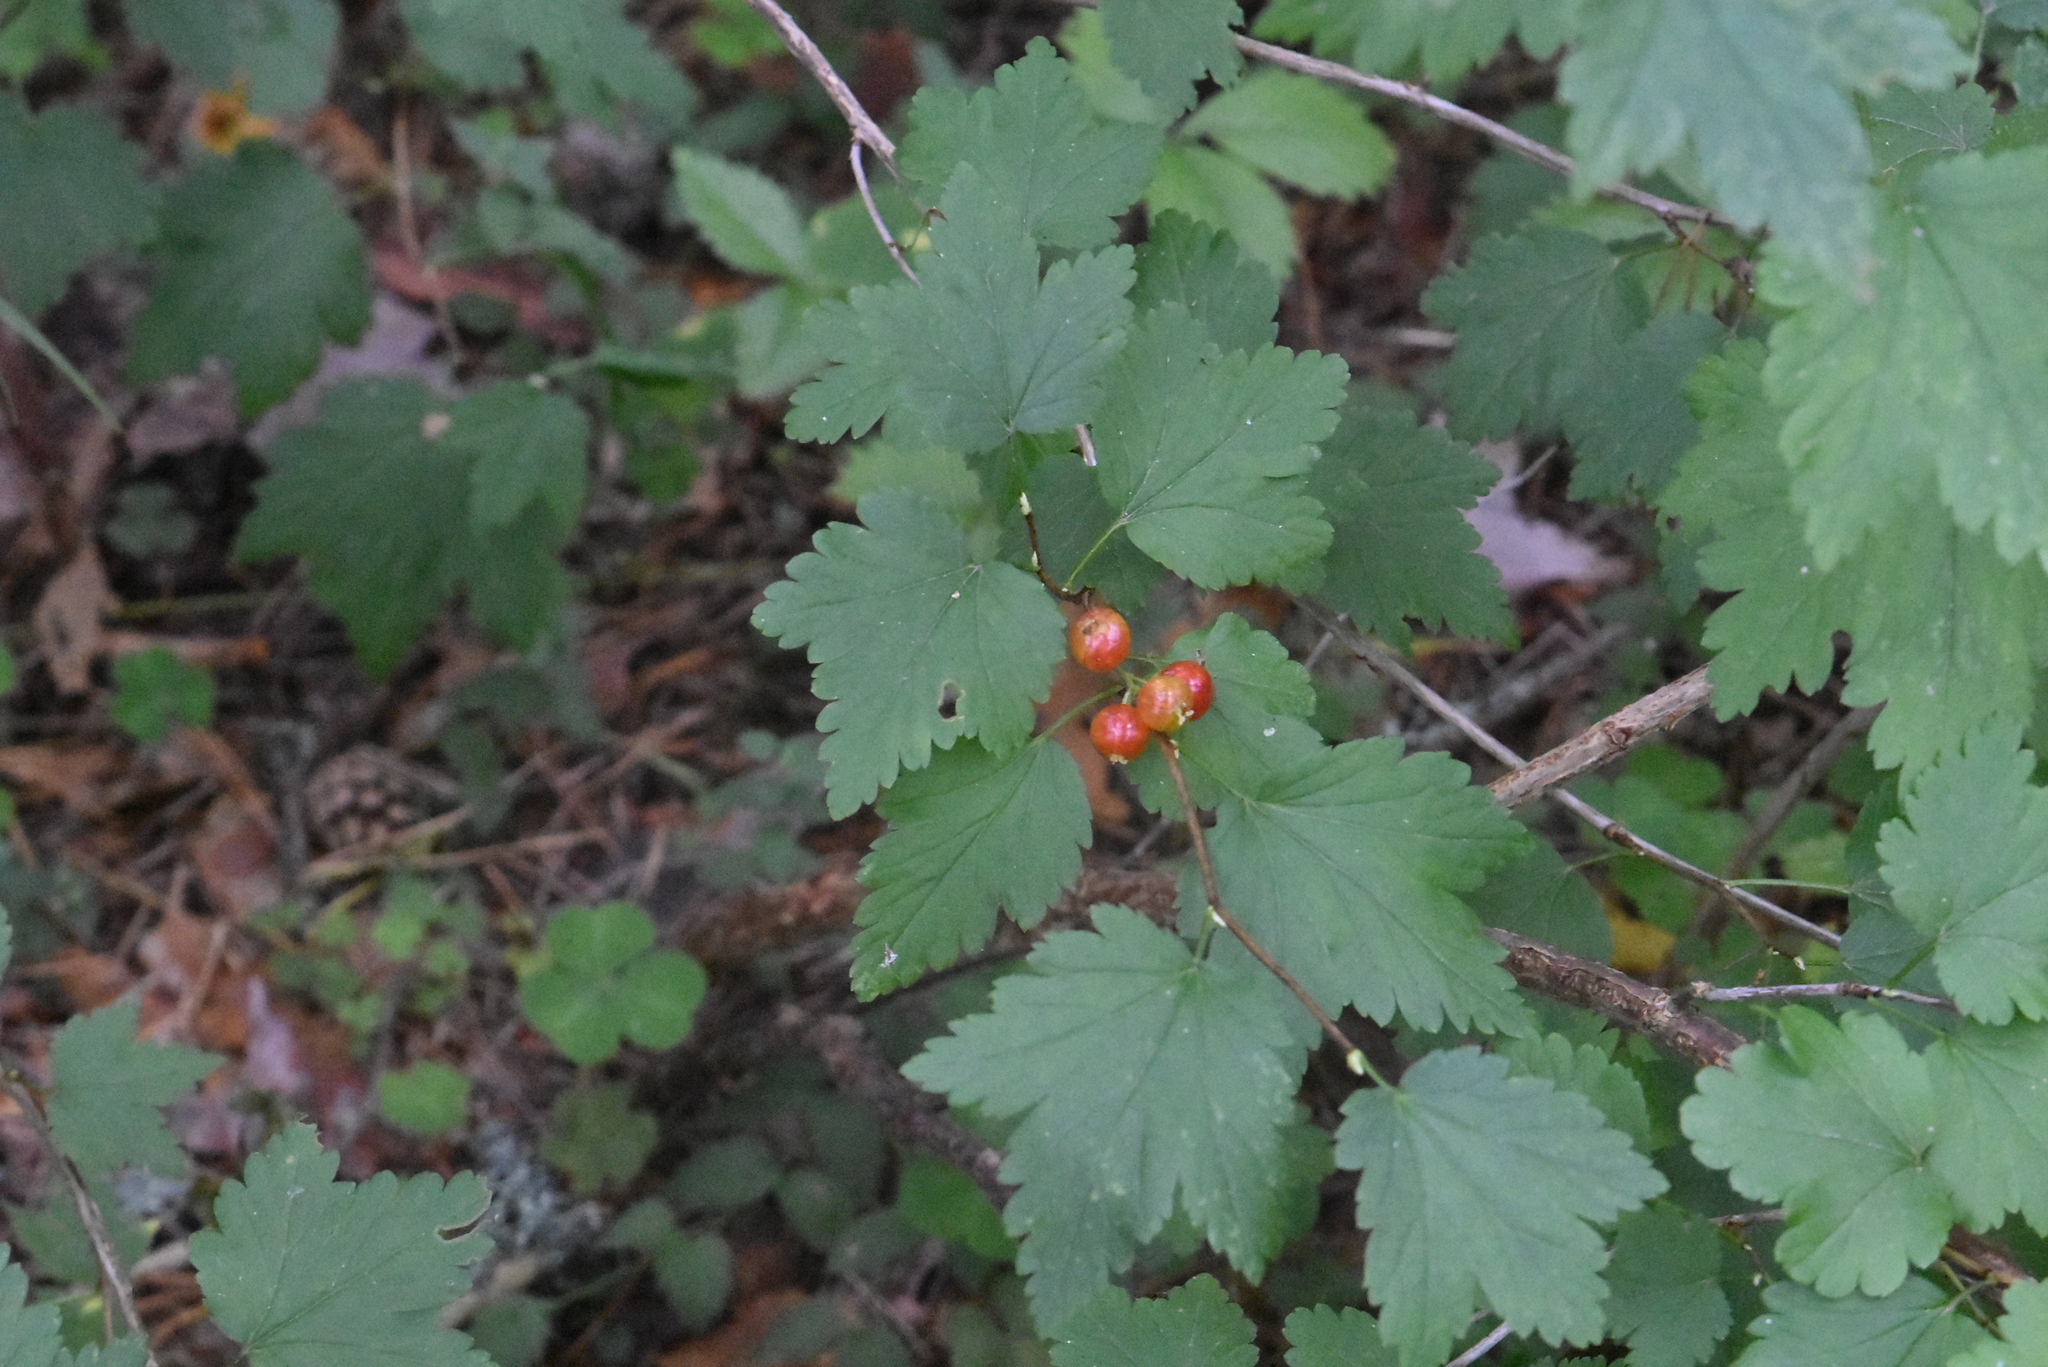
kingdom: Plantae
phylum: Tracheophyta
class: Magnoliopsida
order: Saxifragales
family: Grossulariaceae
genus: Ribes
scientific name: Ribes alpinum
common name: Alpine currant
